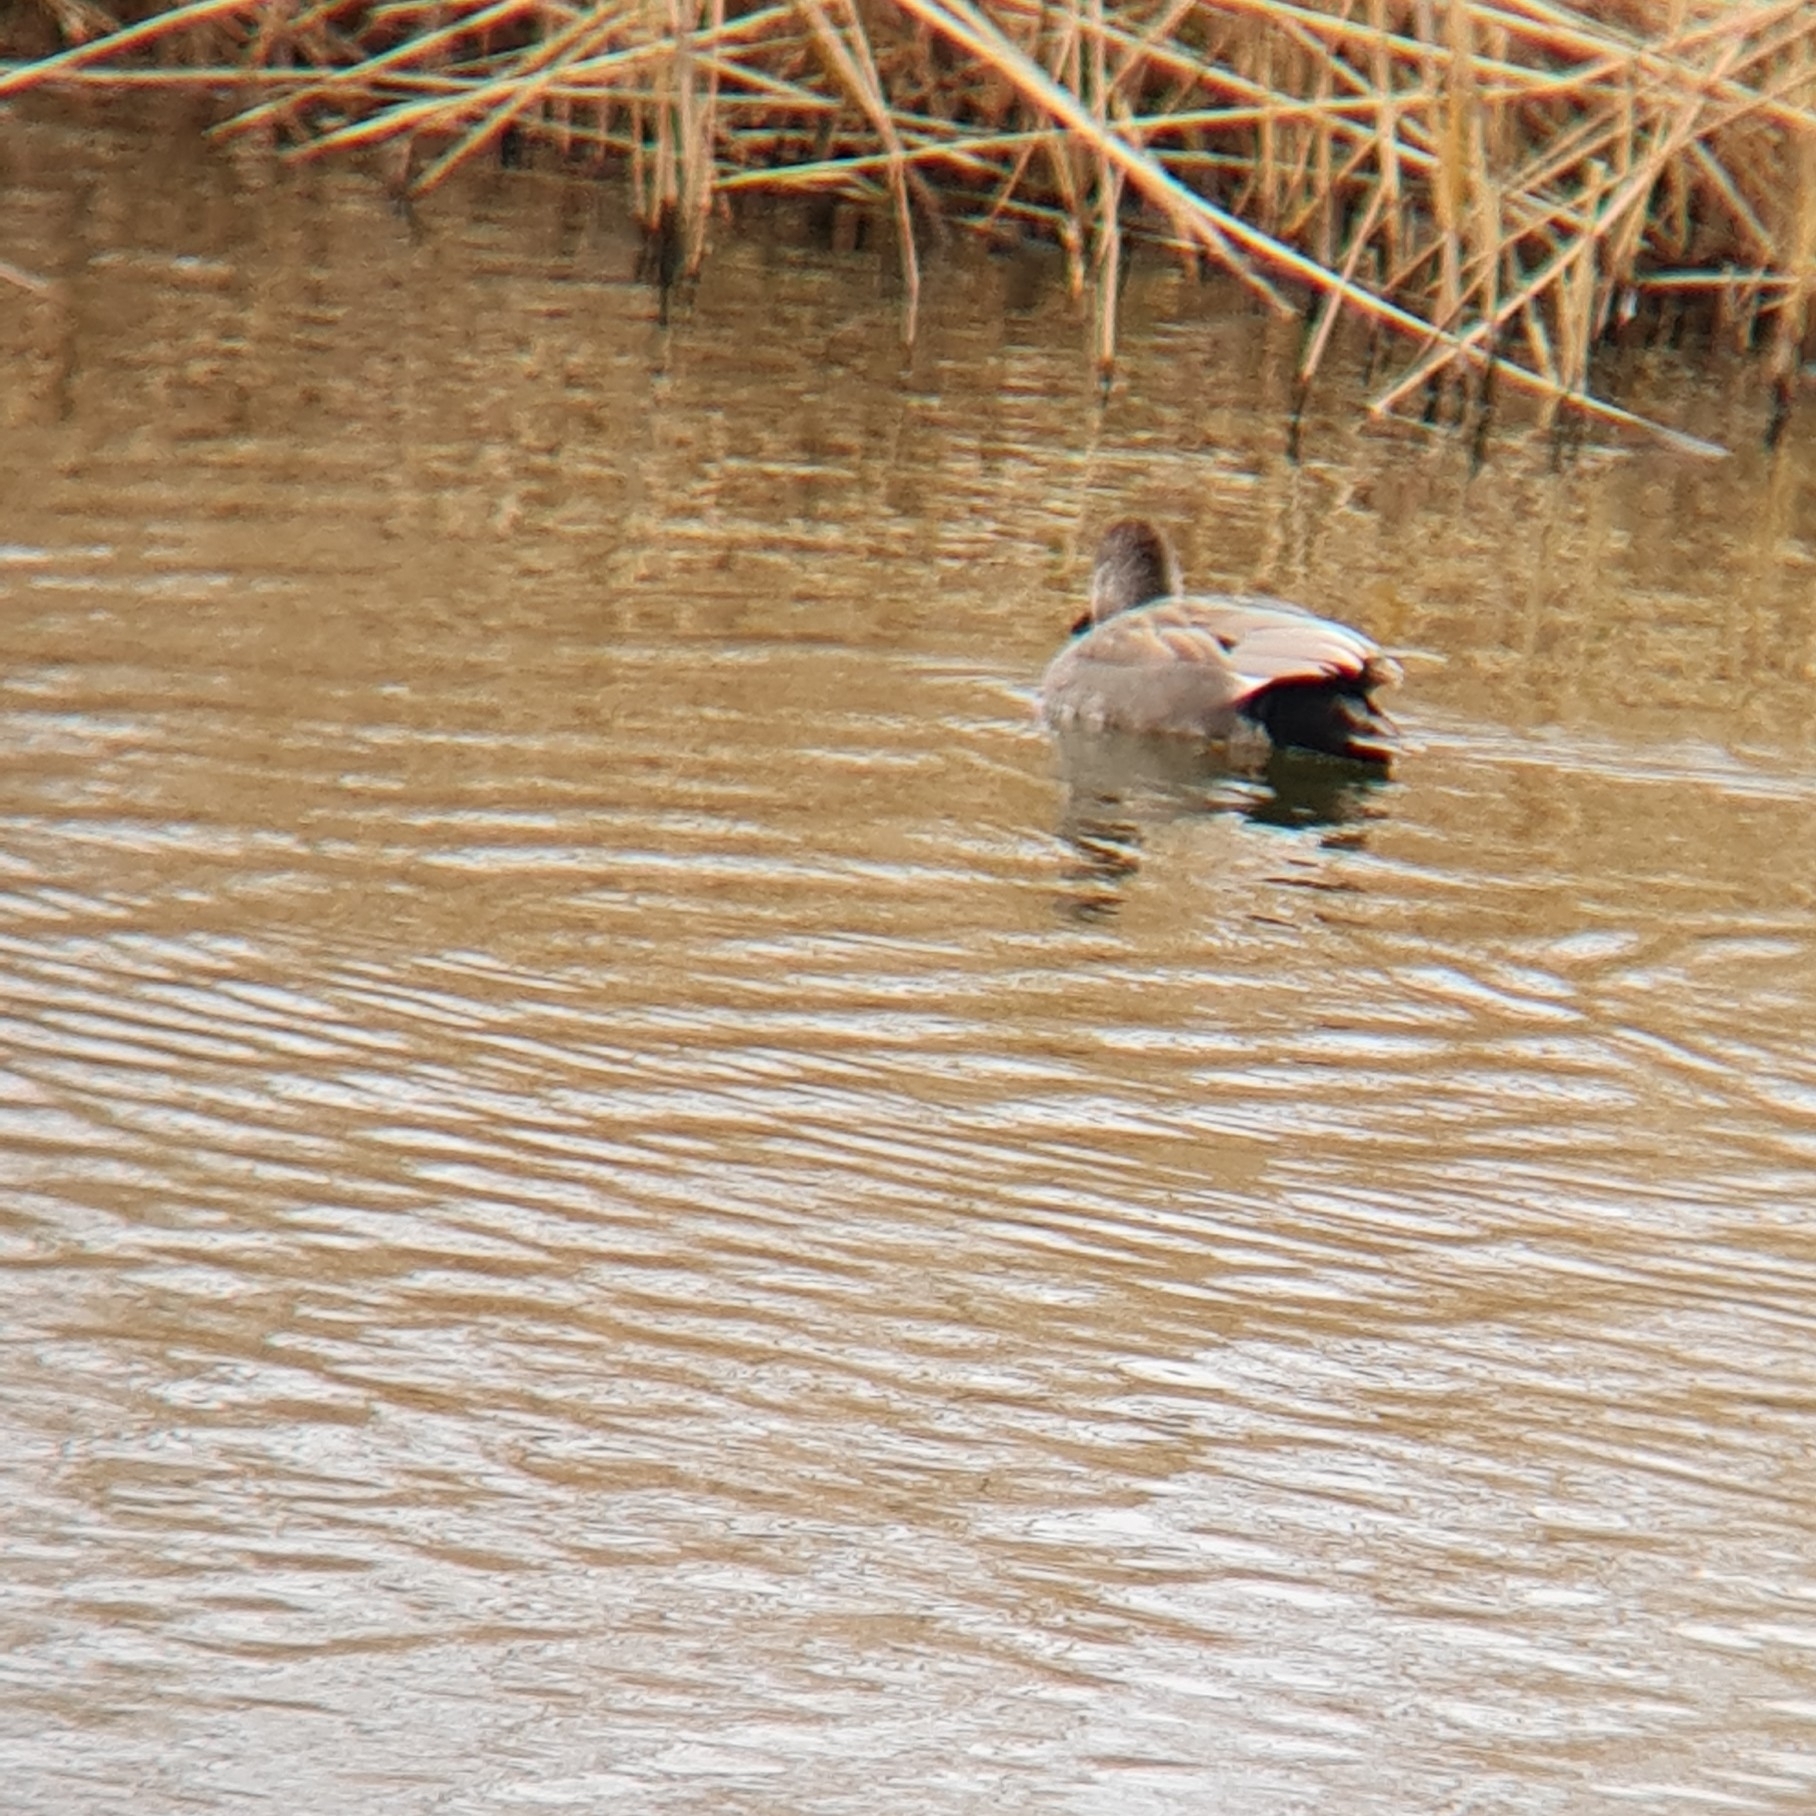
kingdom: Animalia
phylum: Chordata
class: Aves
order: Anseriformes
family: Anatidae
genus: Mareca
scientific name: Mareca strepera
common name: Gadwall
